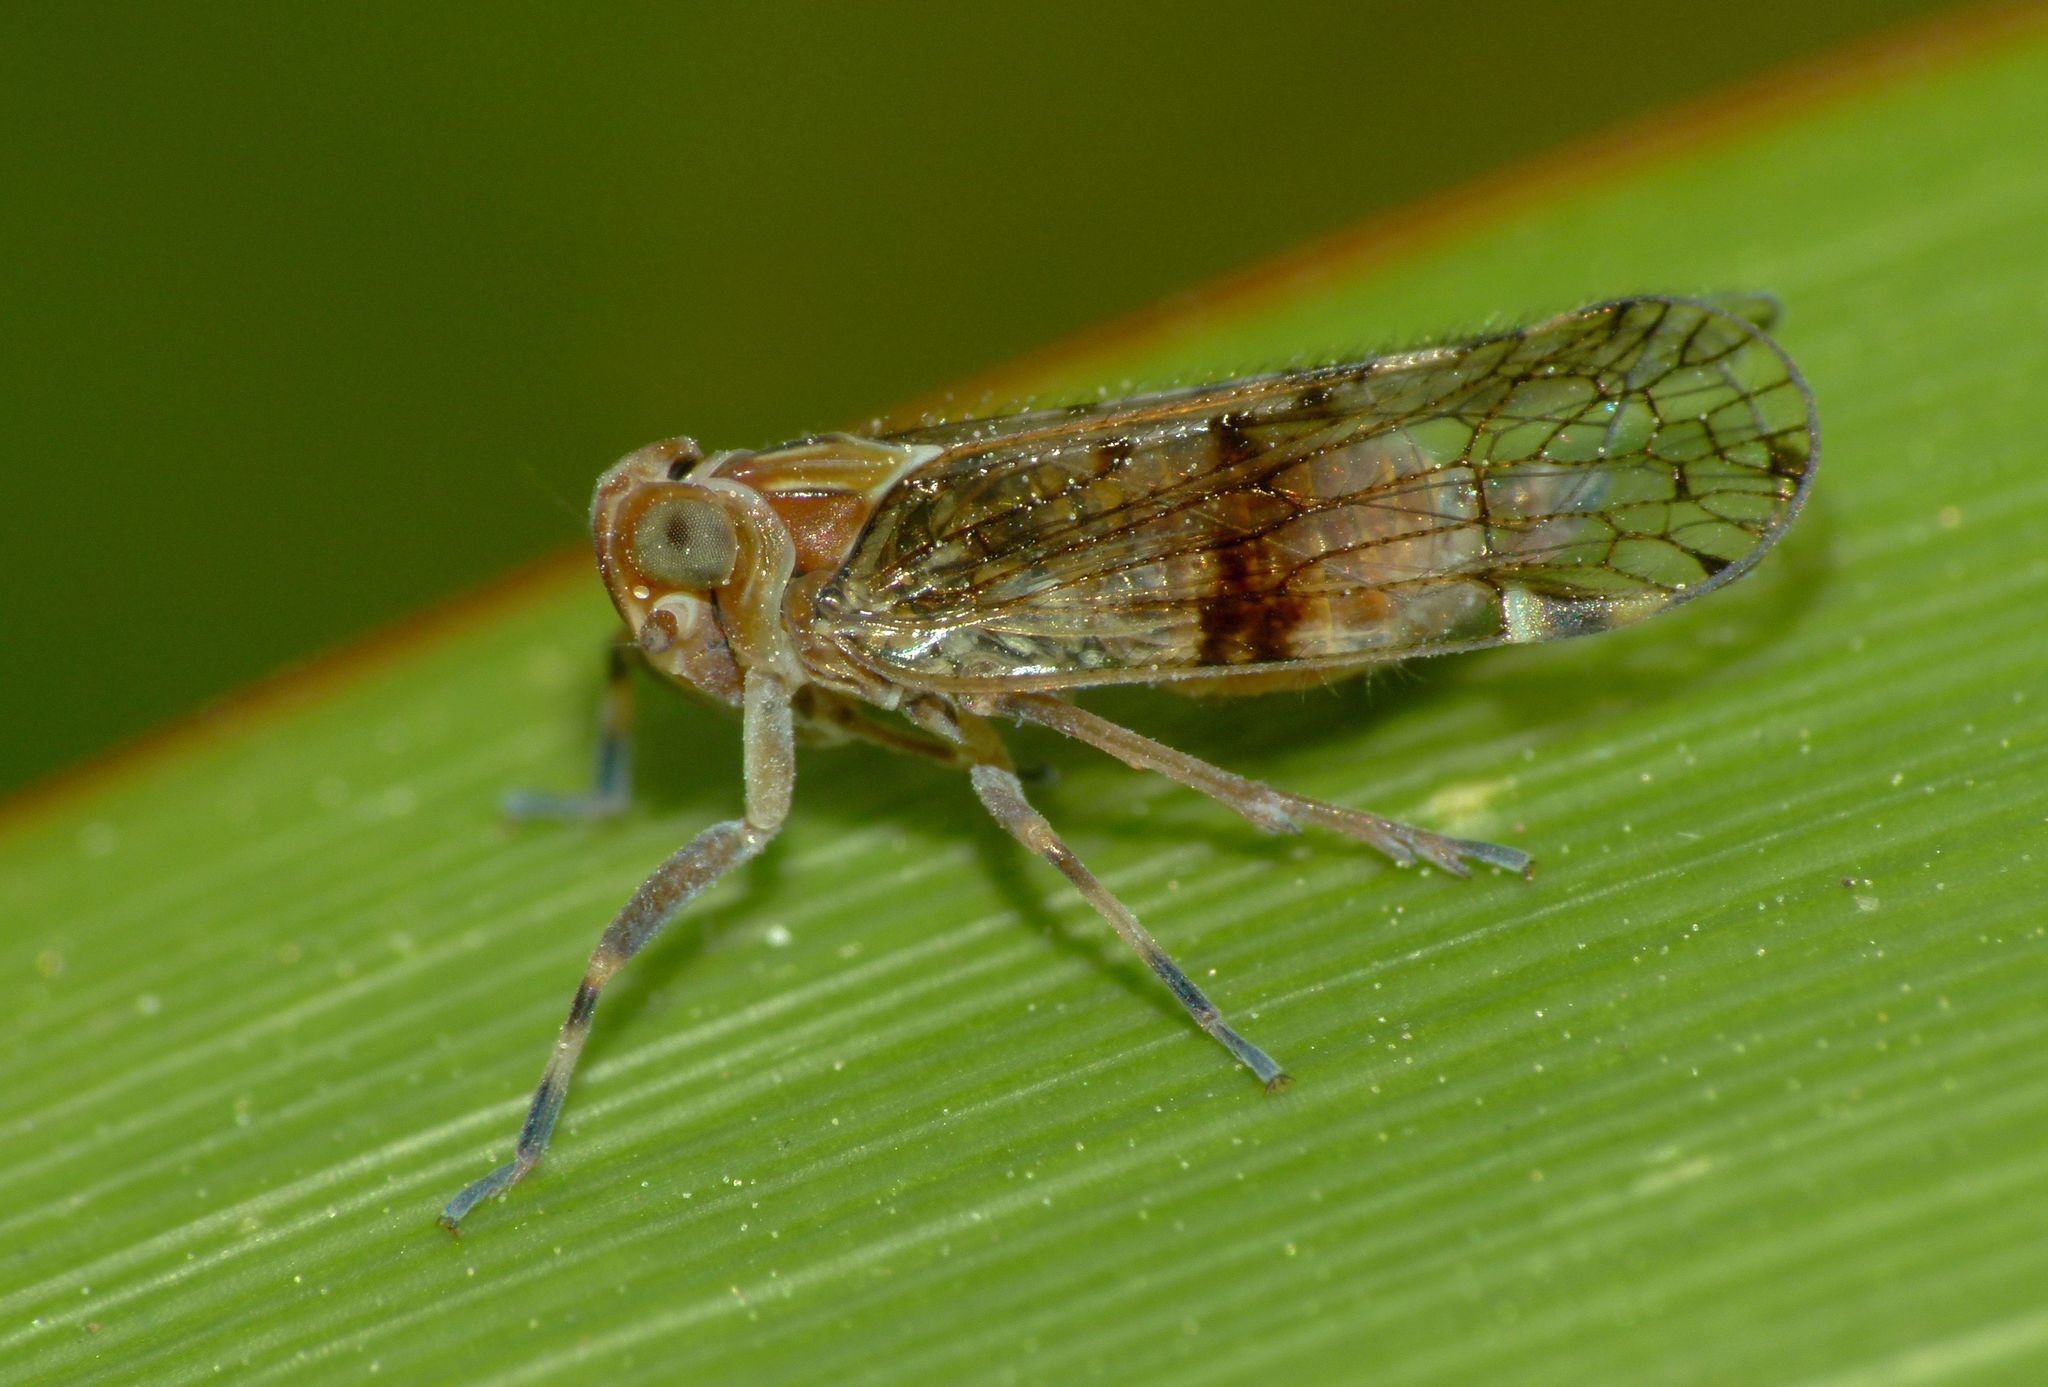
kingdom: Animalia
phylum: Arthropoda
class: Insecta
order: Hemiptera
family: Cixiidae
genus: Koroana
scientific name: Koroana lanceloti
